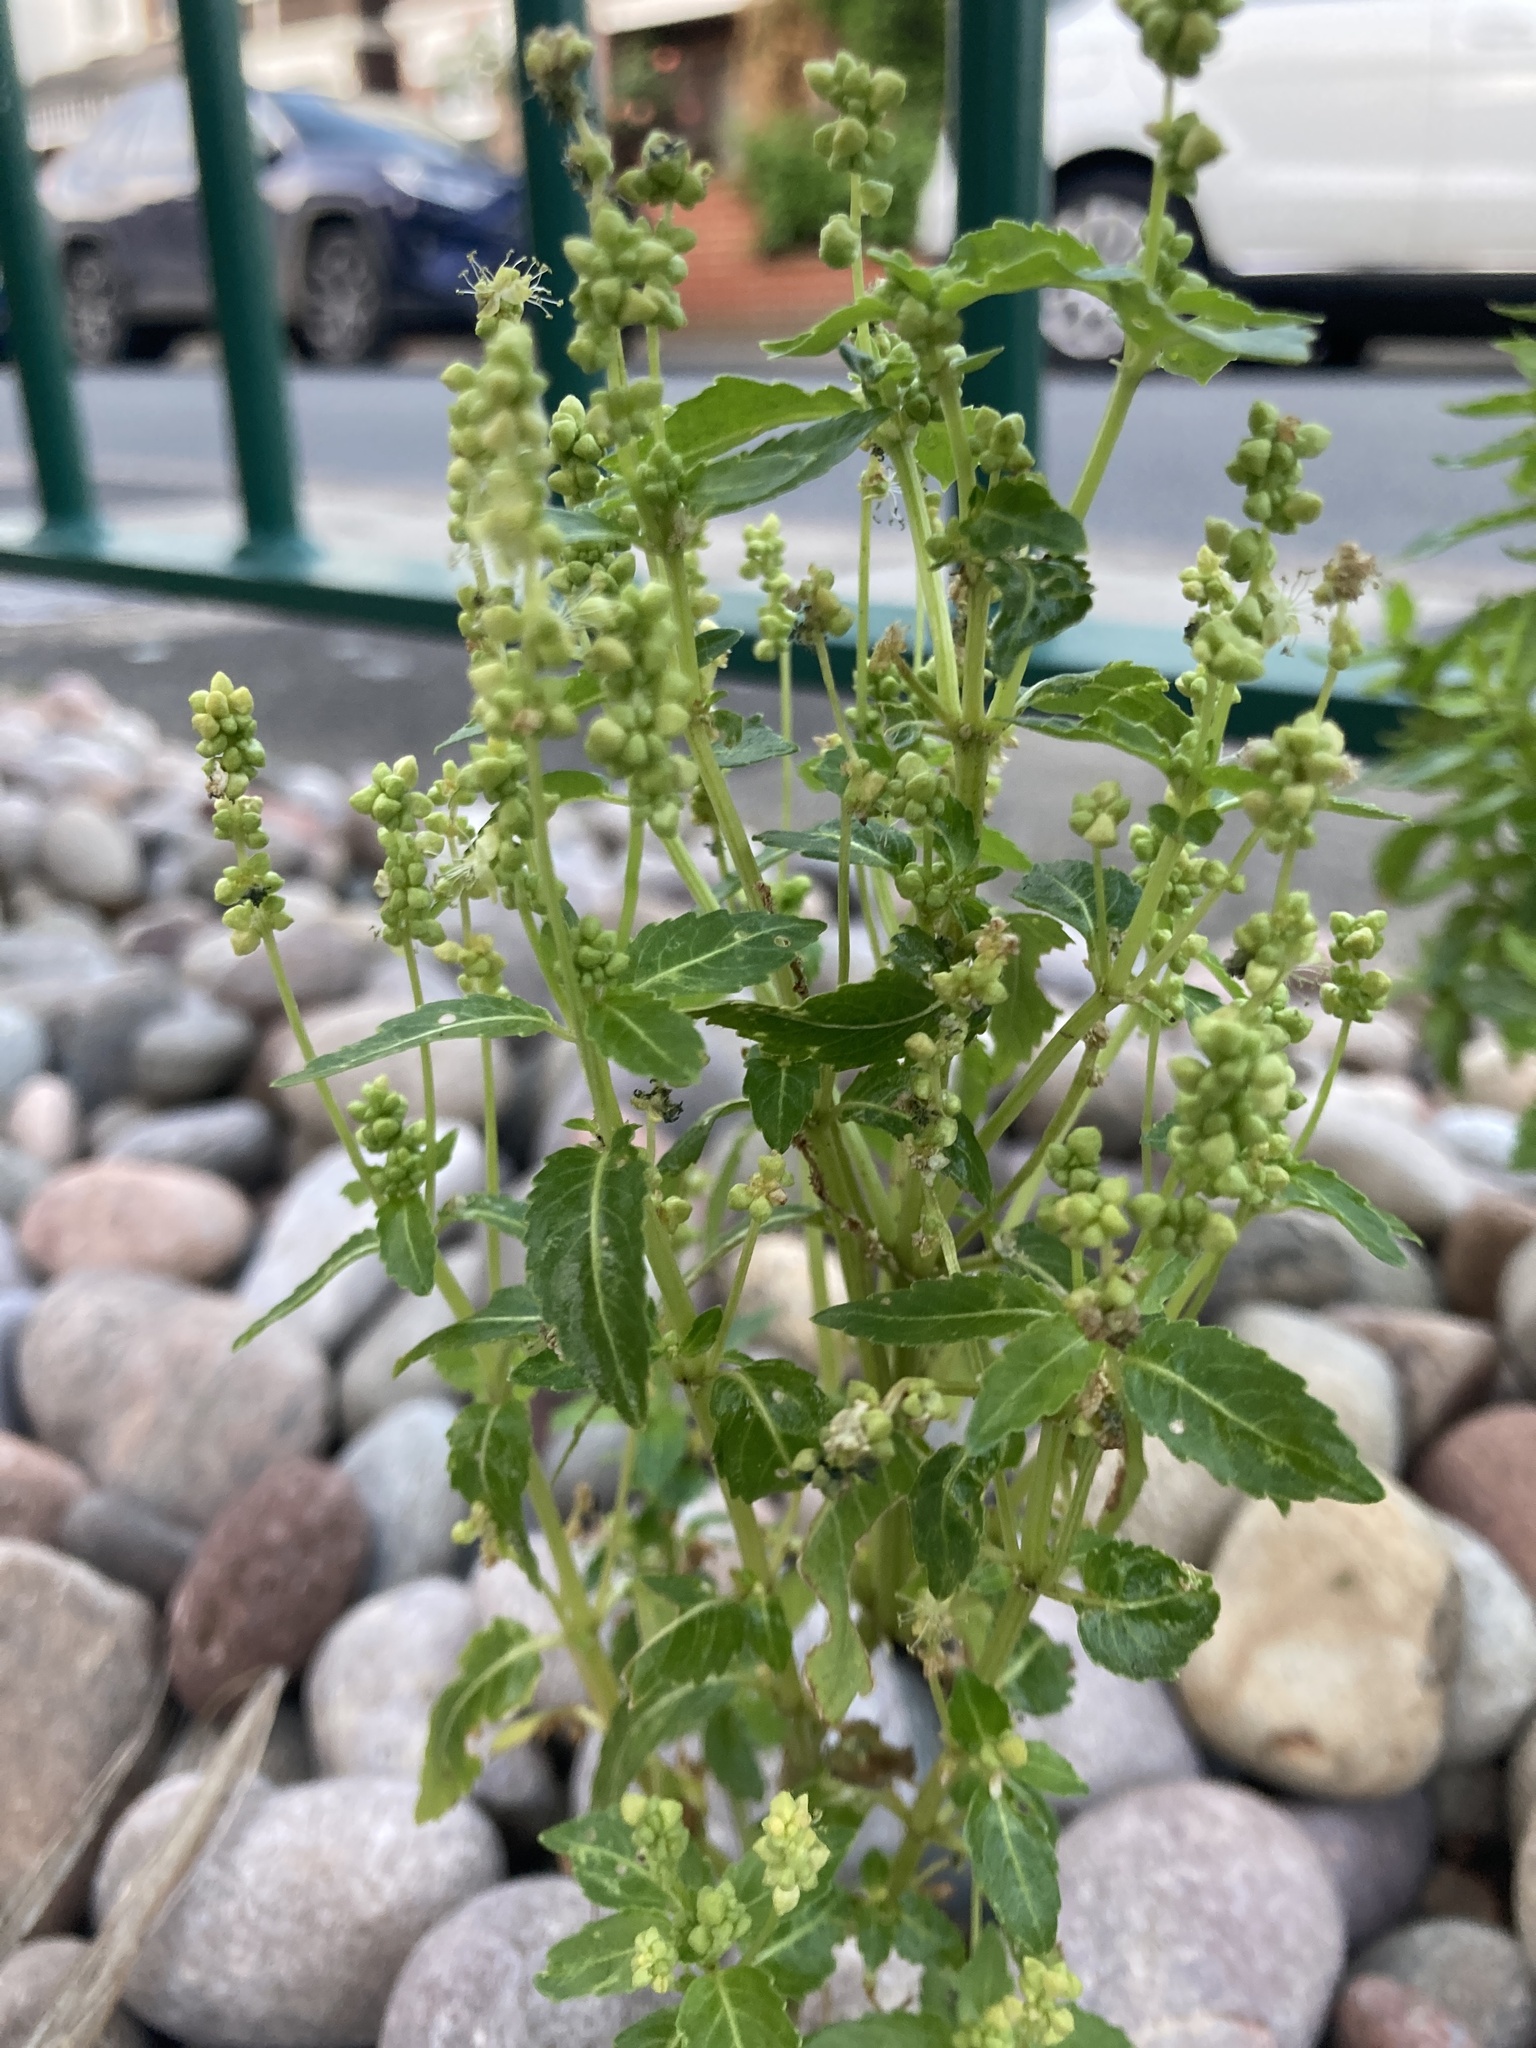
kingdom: Plantae
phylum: Tracheophyta
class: Magnoliopsida
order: Malpighiales
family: Euphorbiaceae
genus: Mercurialis
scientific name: Mercurialis annua
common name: Annual mercury
